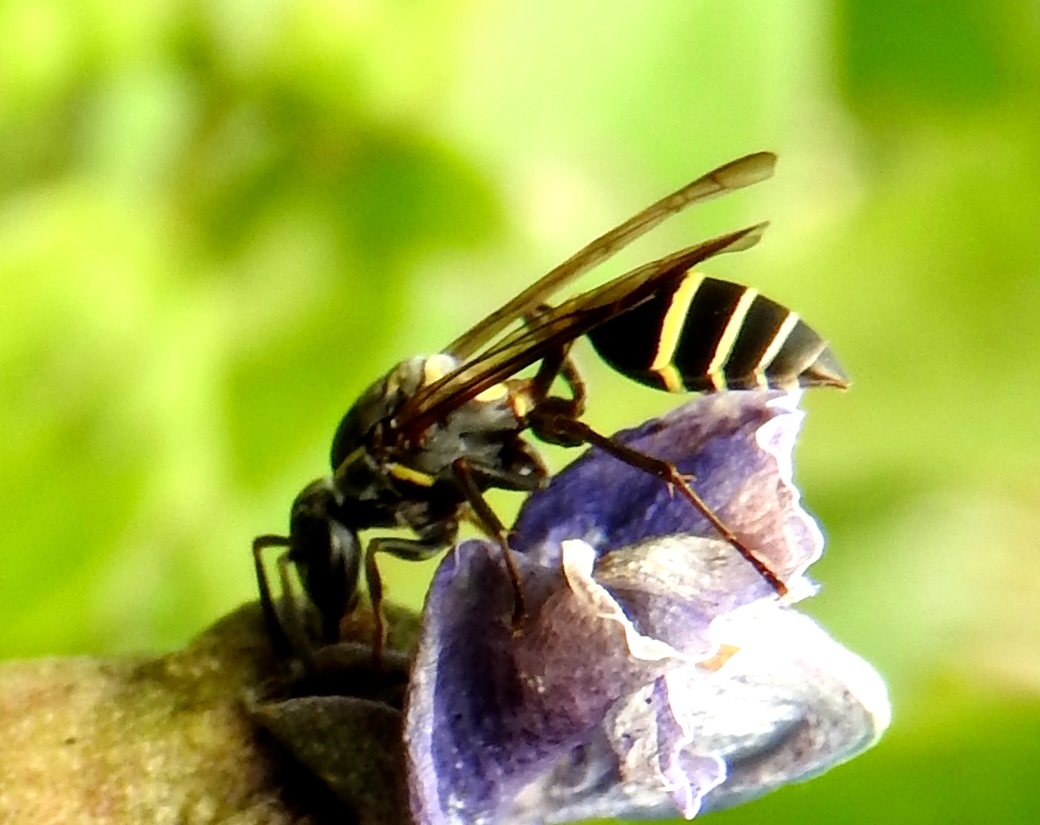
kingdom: Animalia
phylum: Arthropoda
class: Insecta
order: Hymenoptera
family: Eumenidae
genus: Polybia
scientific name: Polybia
